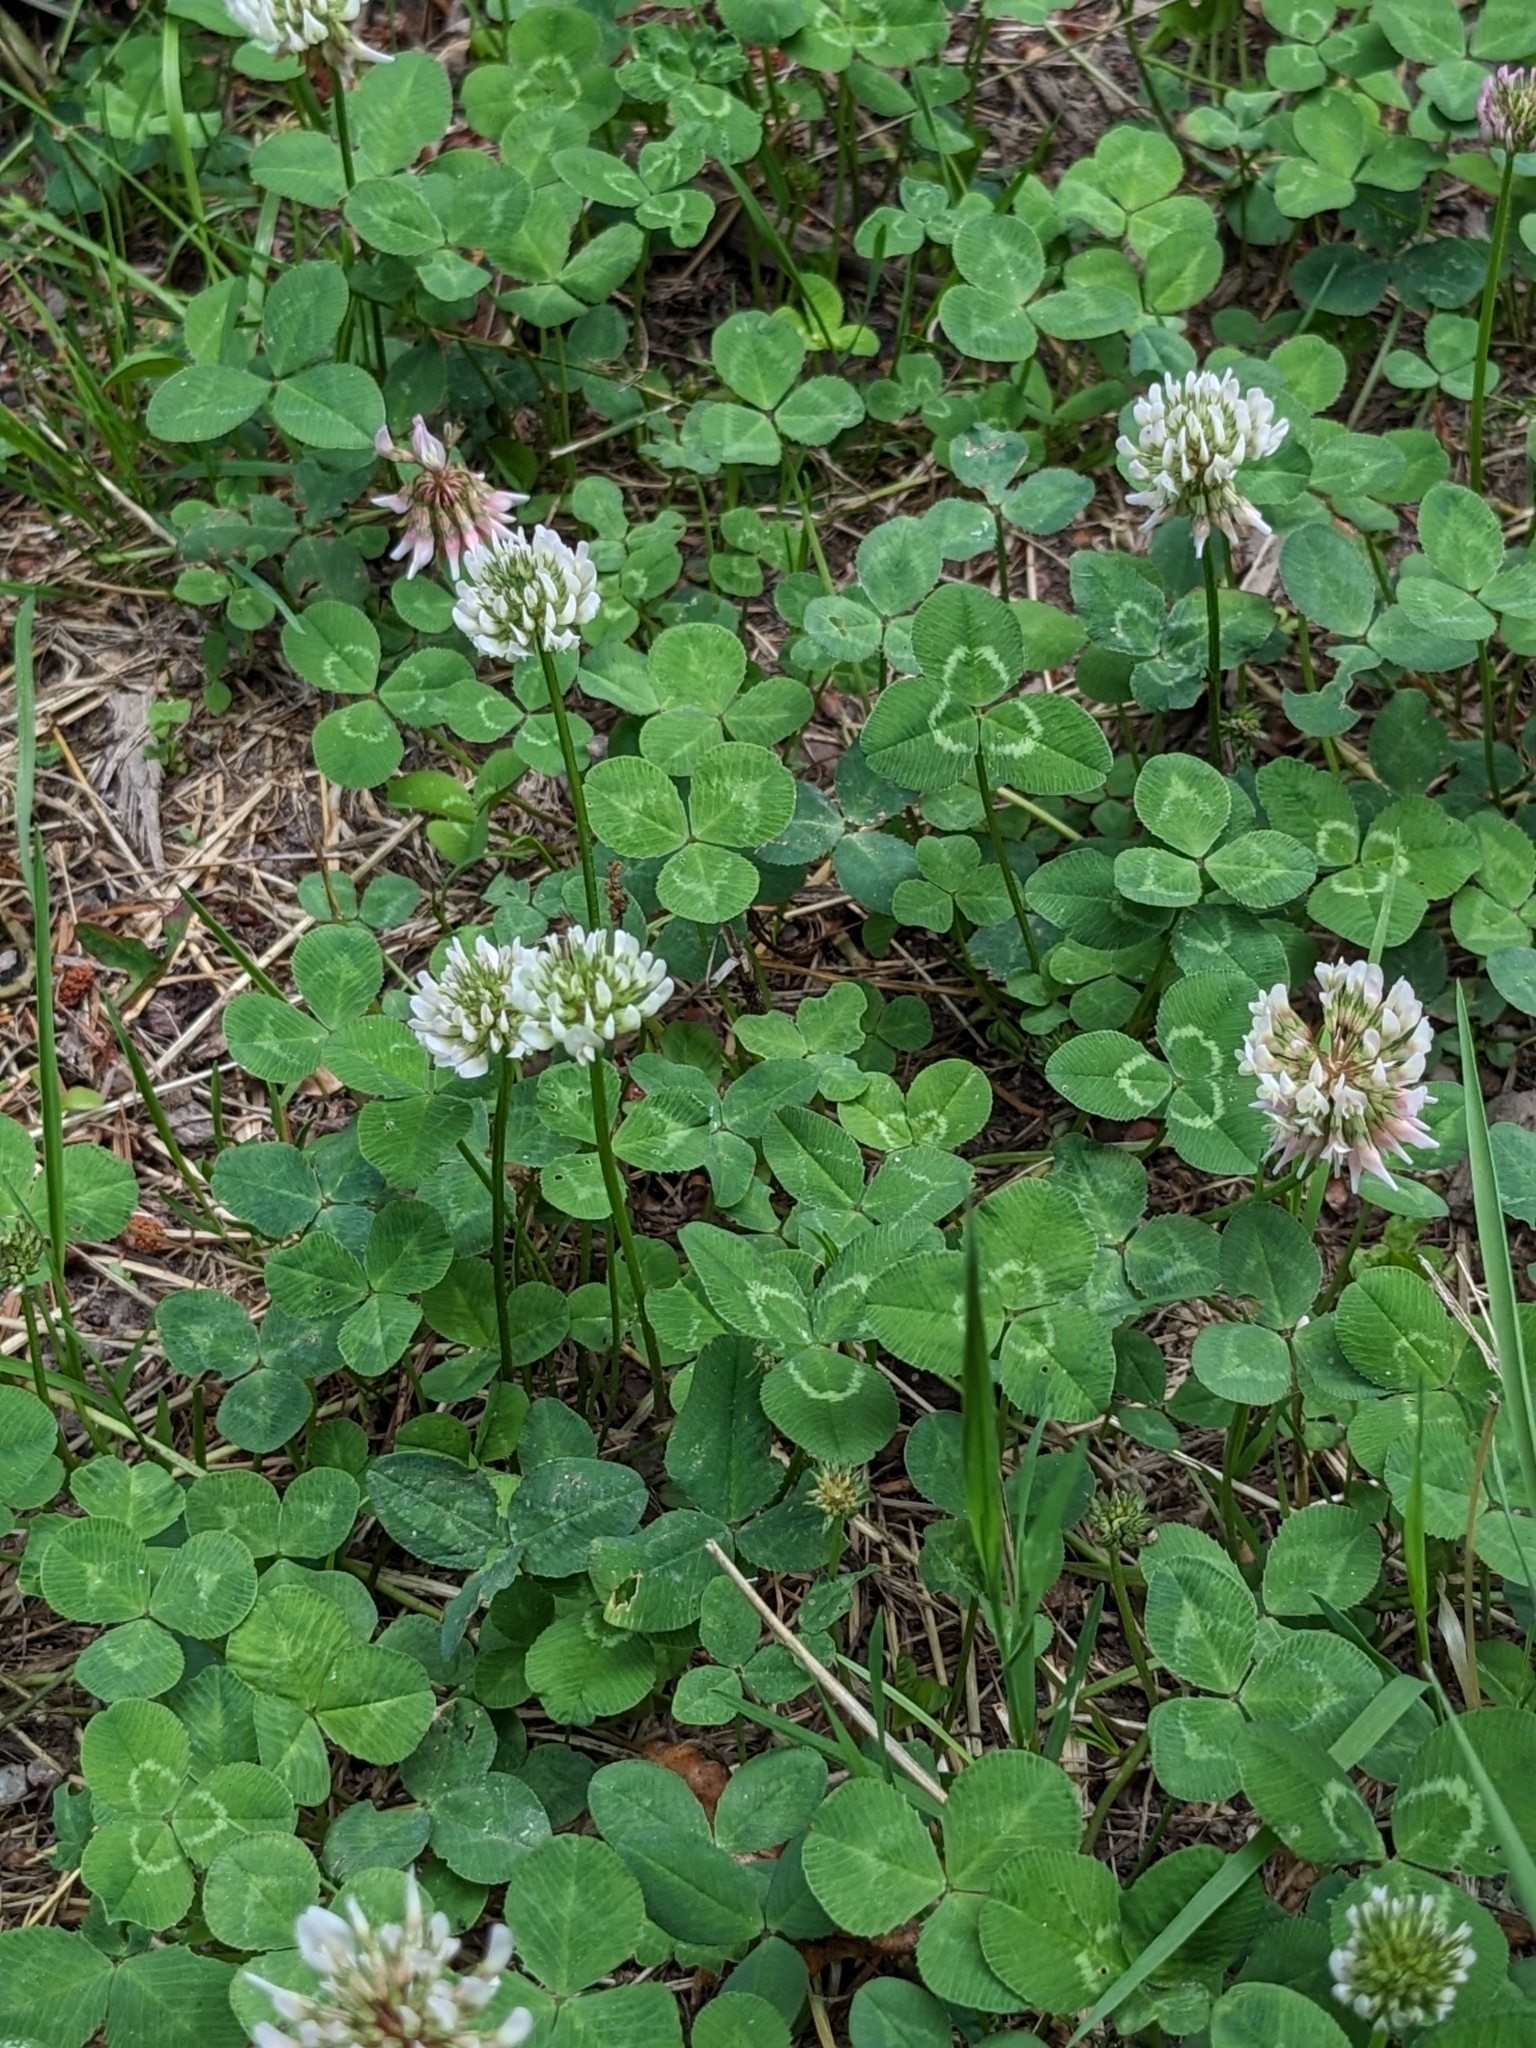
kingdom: Plantae
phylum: Tracheophyta
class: Magnoliopsida
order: Fabales
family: Fabaceae
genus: Trifolium
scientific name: Trifolium repens
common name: White clover
